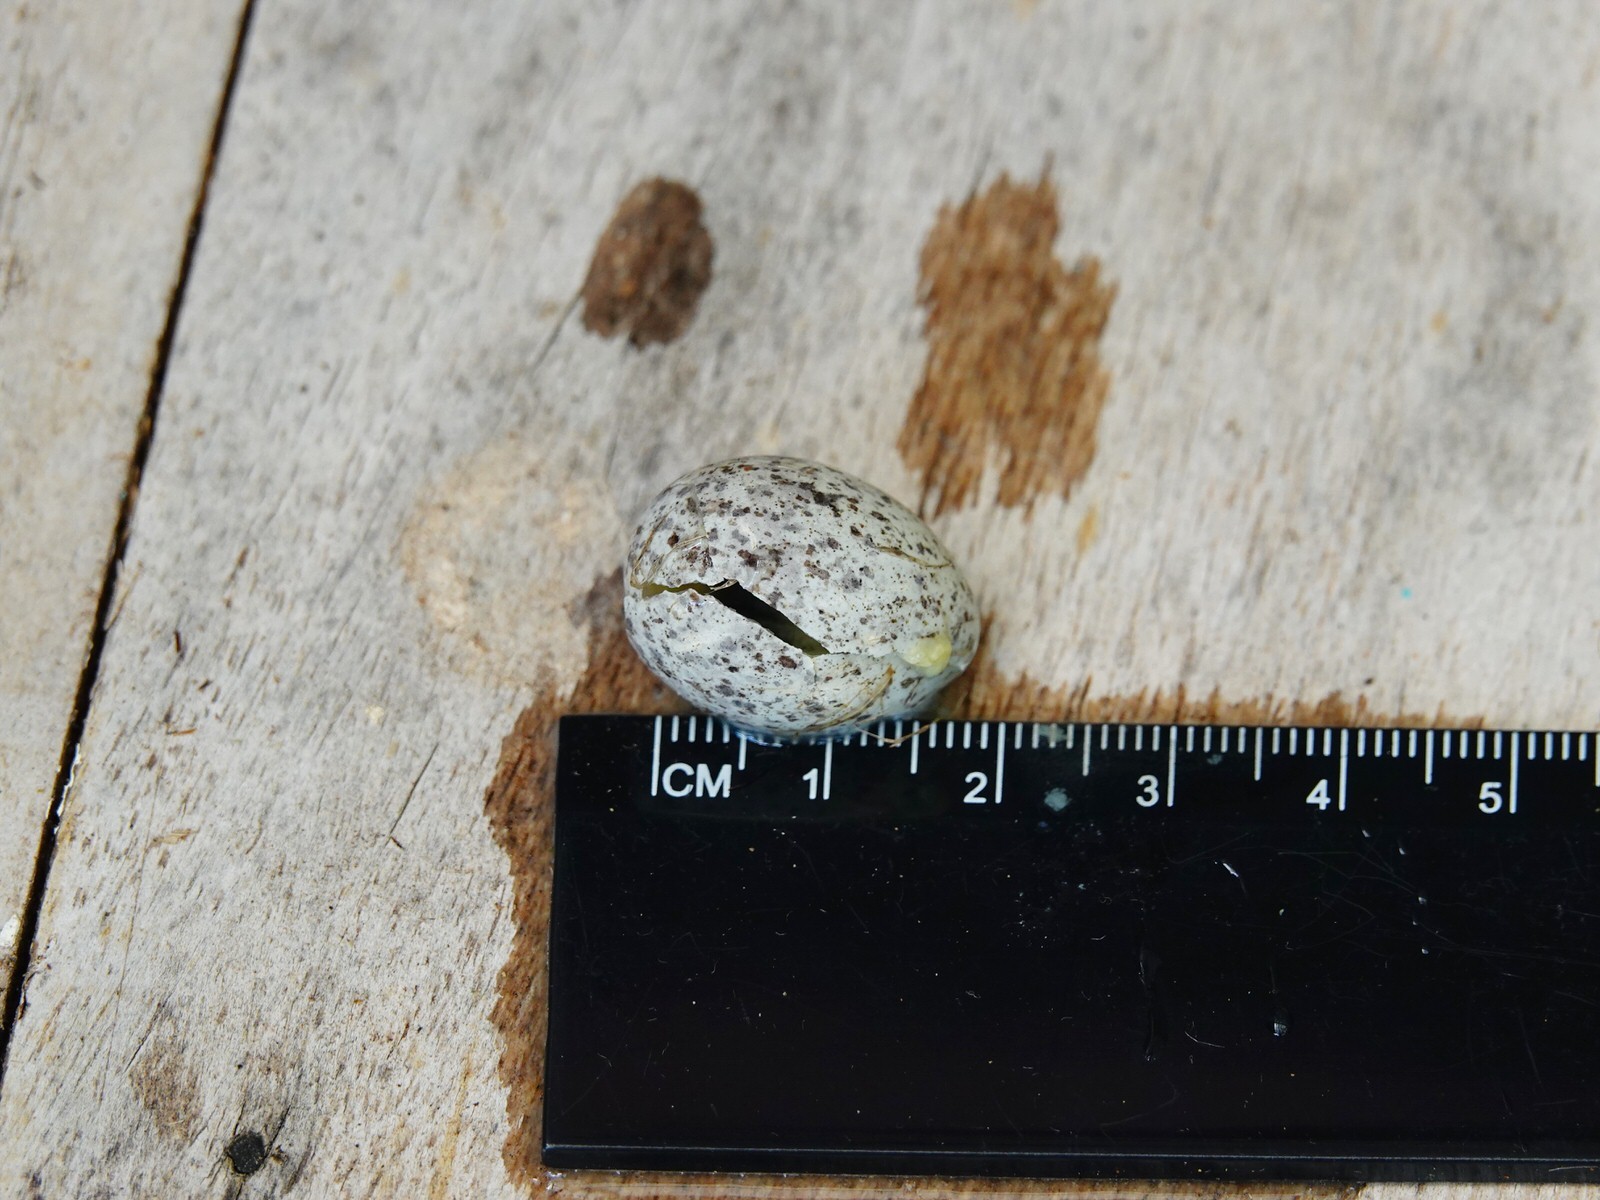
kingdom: Animalia
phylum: Chordata
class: Aves
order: Passeriformes
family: Passeridae
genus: Passer
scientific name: Passer domesticus
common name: House sparrow
